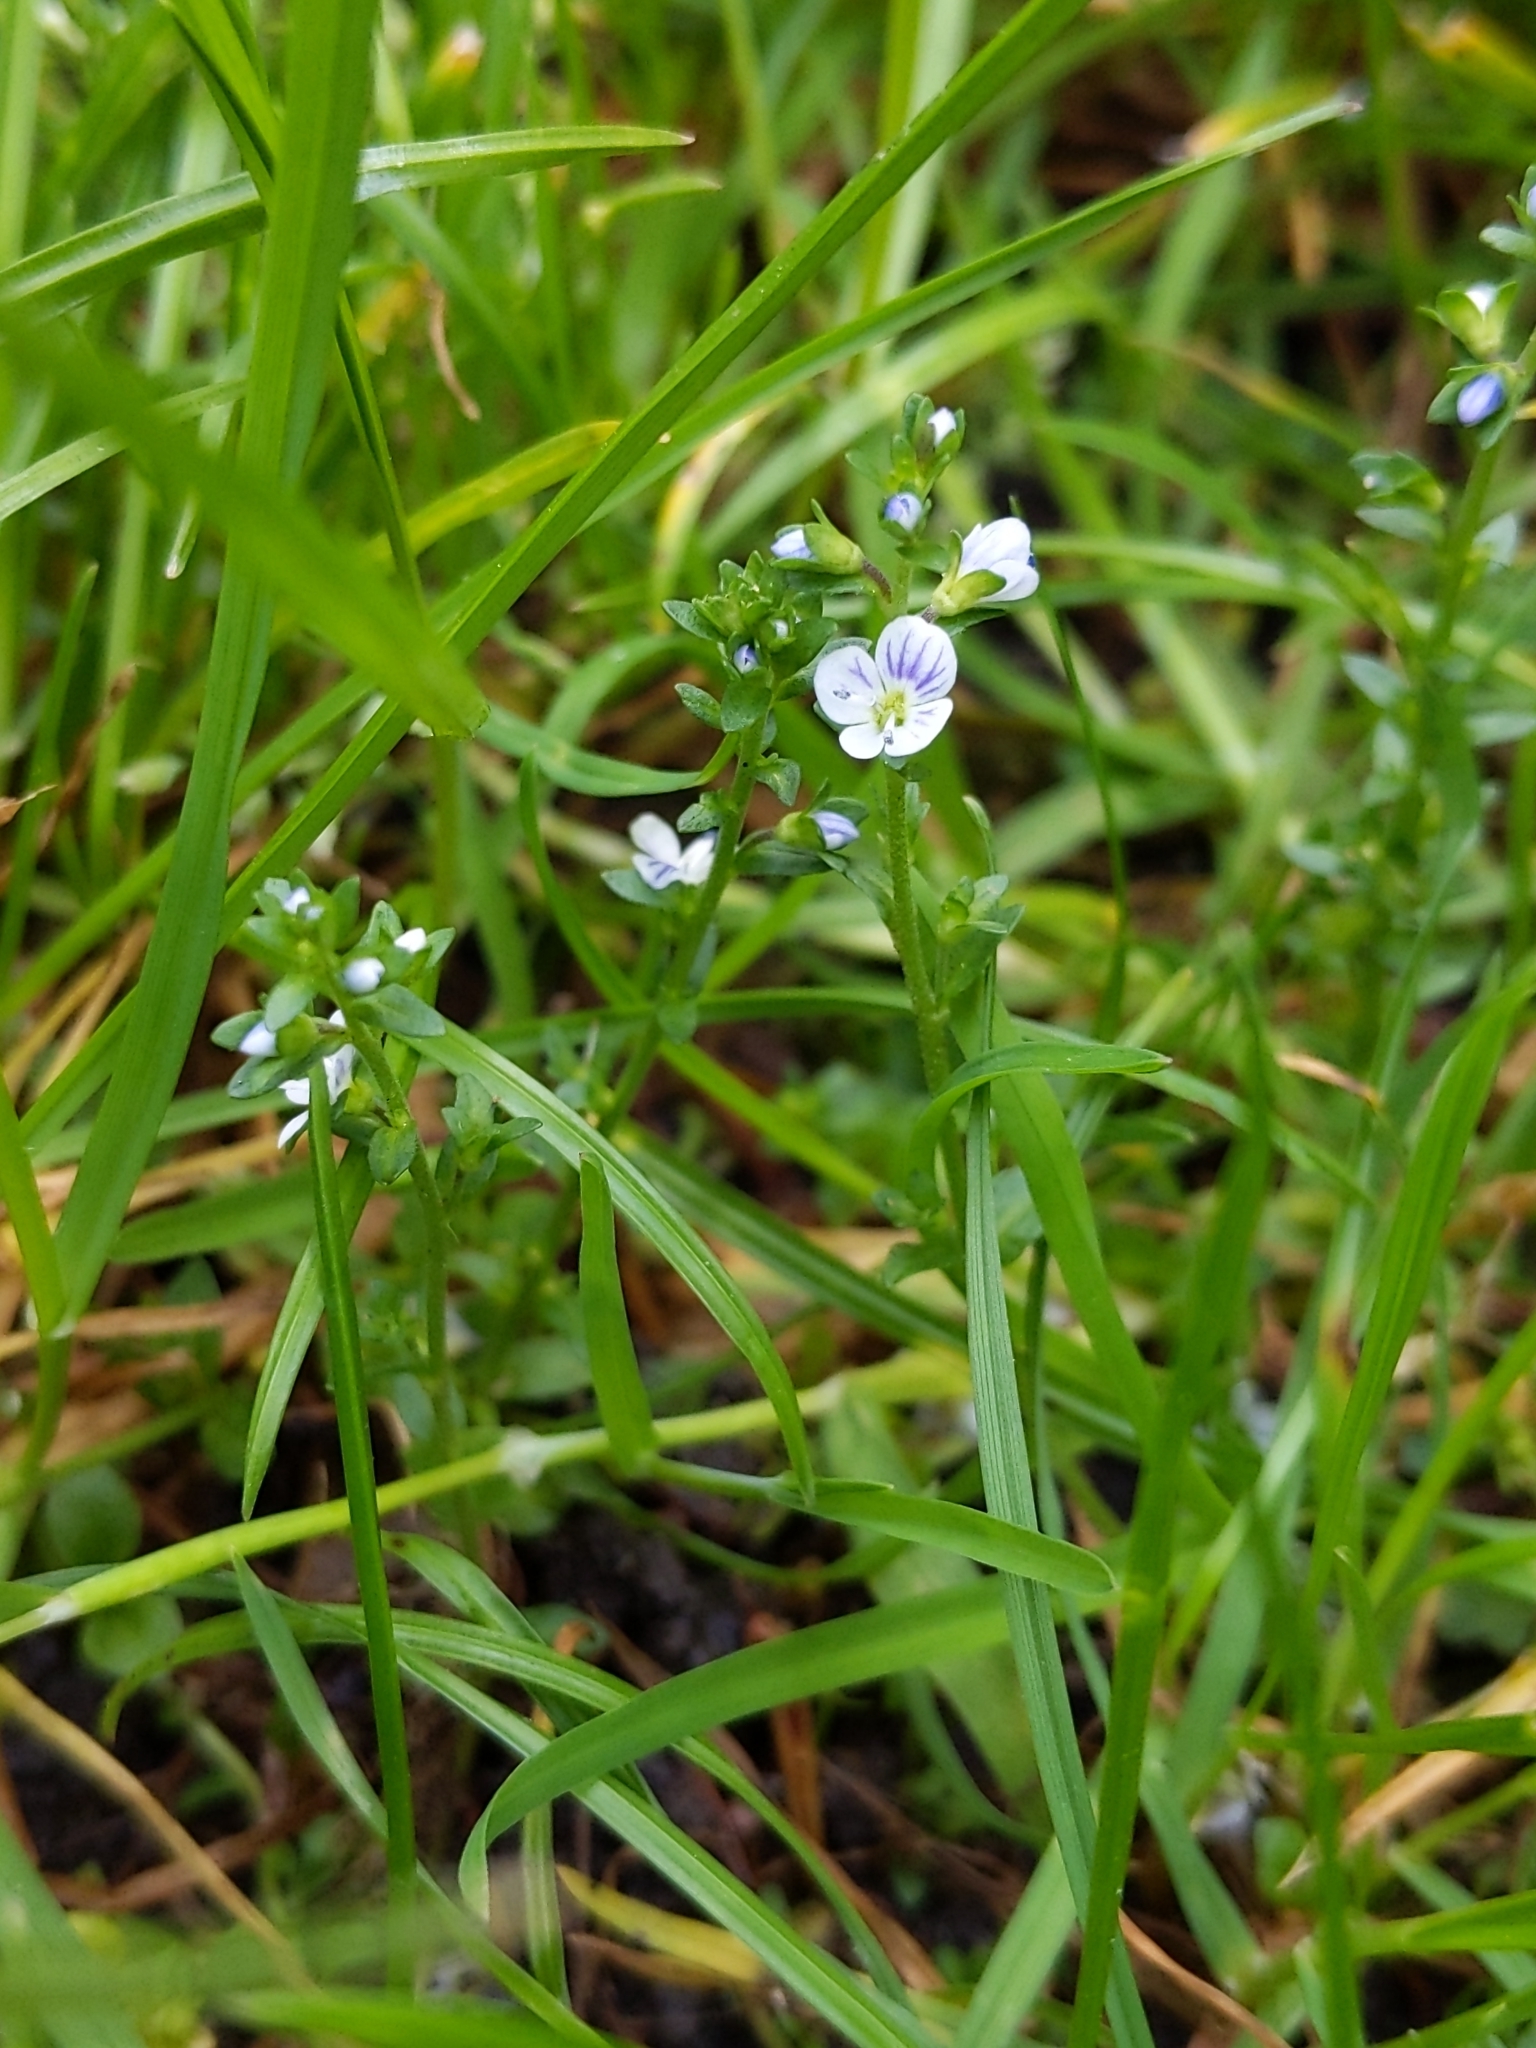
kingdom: Plantae
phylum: Tracheophyta
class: Magnoliopsida
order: Lamiales
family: Plantaginaceae
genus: Veronica
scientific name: Veronica serpyllifolia
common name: Thyme-leaved speedwell
